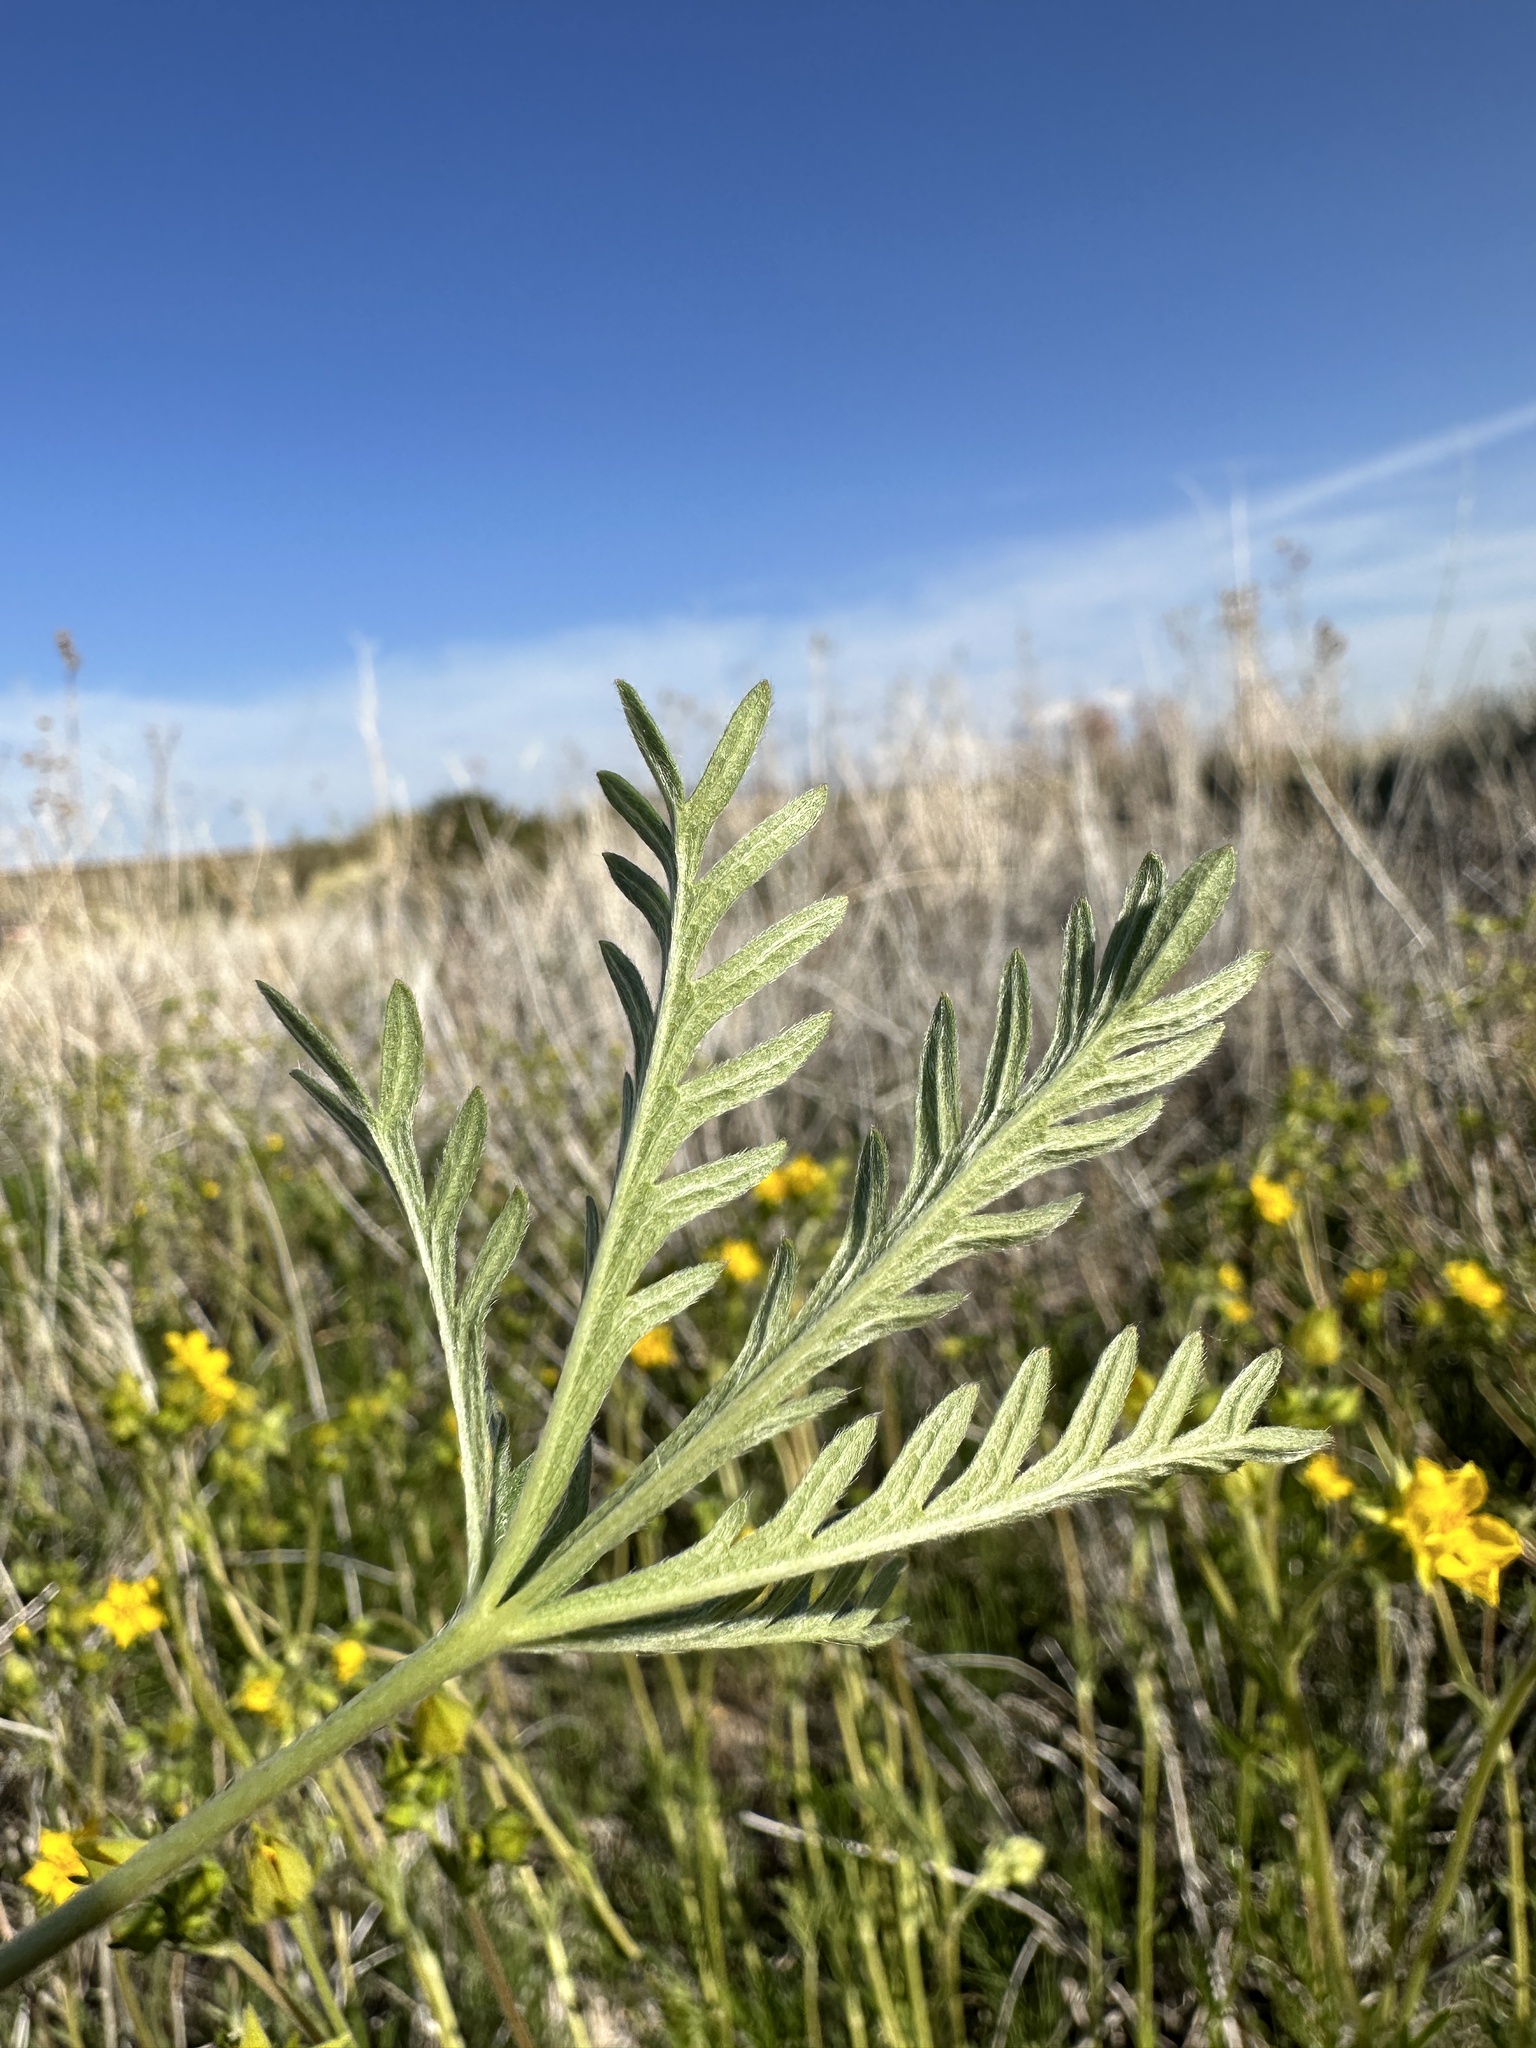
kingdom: Plantae
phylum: Tracheophyta
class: Magnoliopsida
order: Rosales
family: Rosaceae
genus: Potentilla
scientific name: Potentilla gracilis
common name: Graceful cinquefoil
